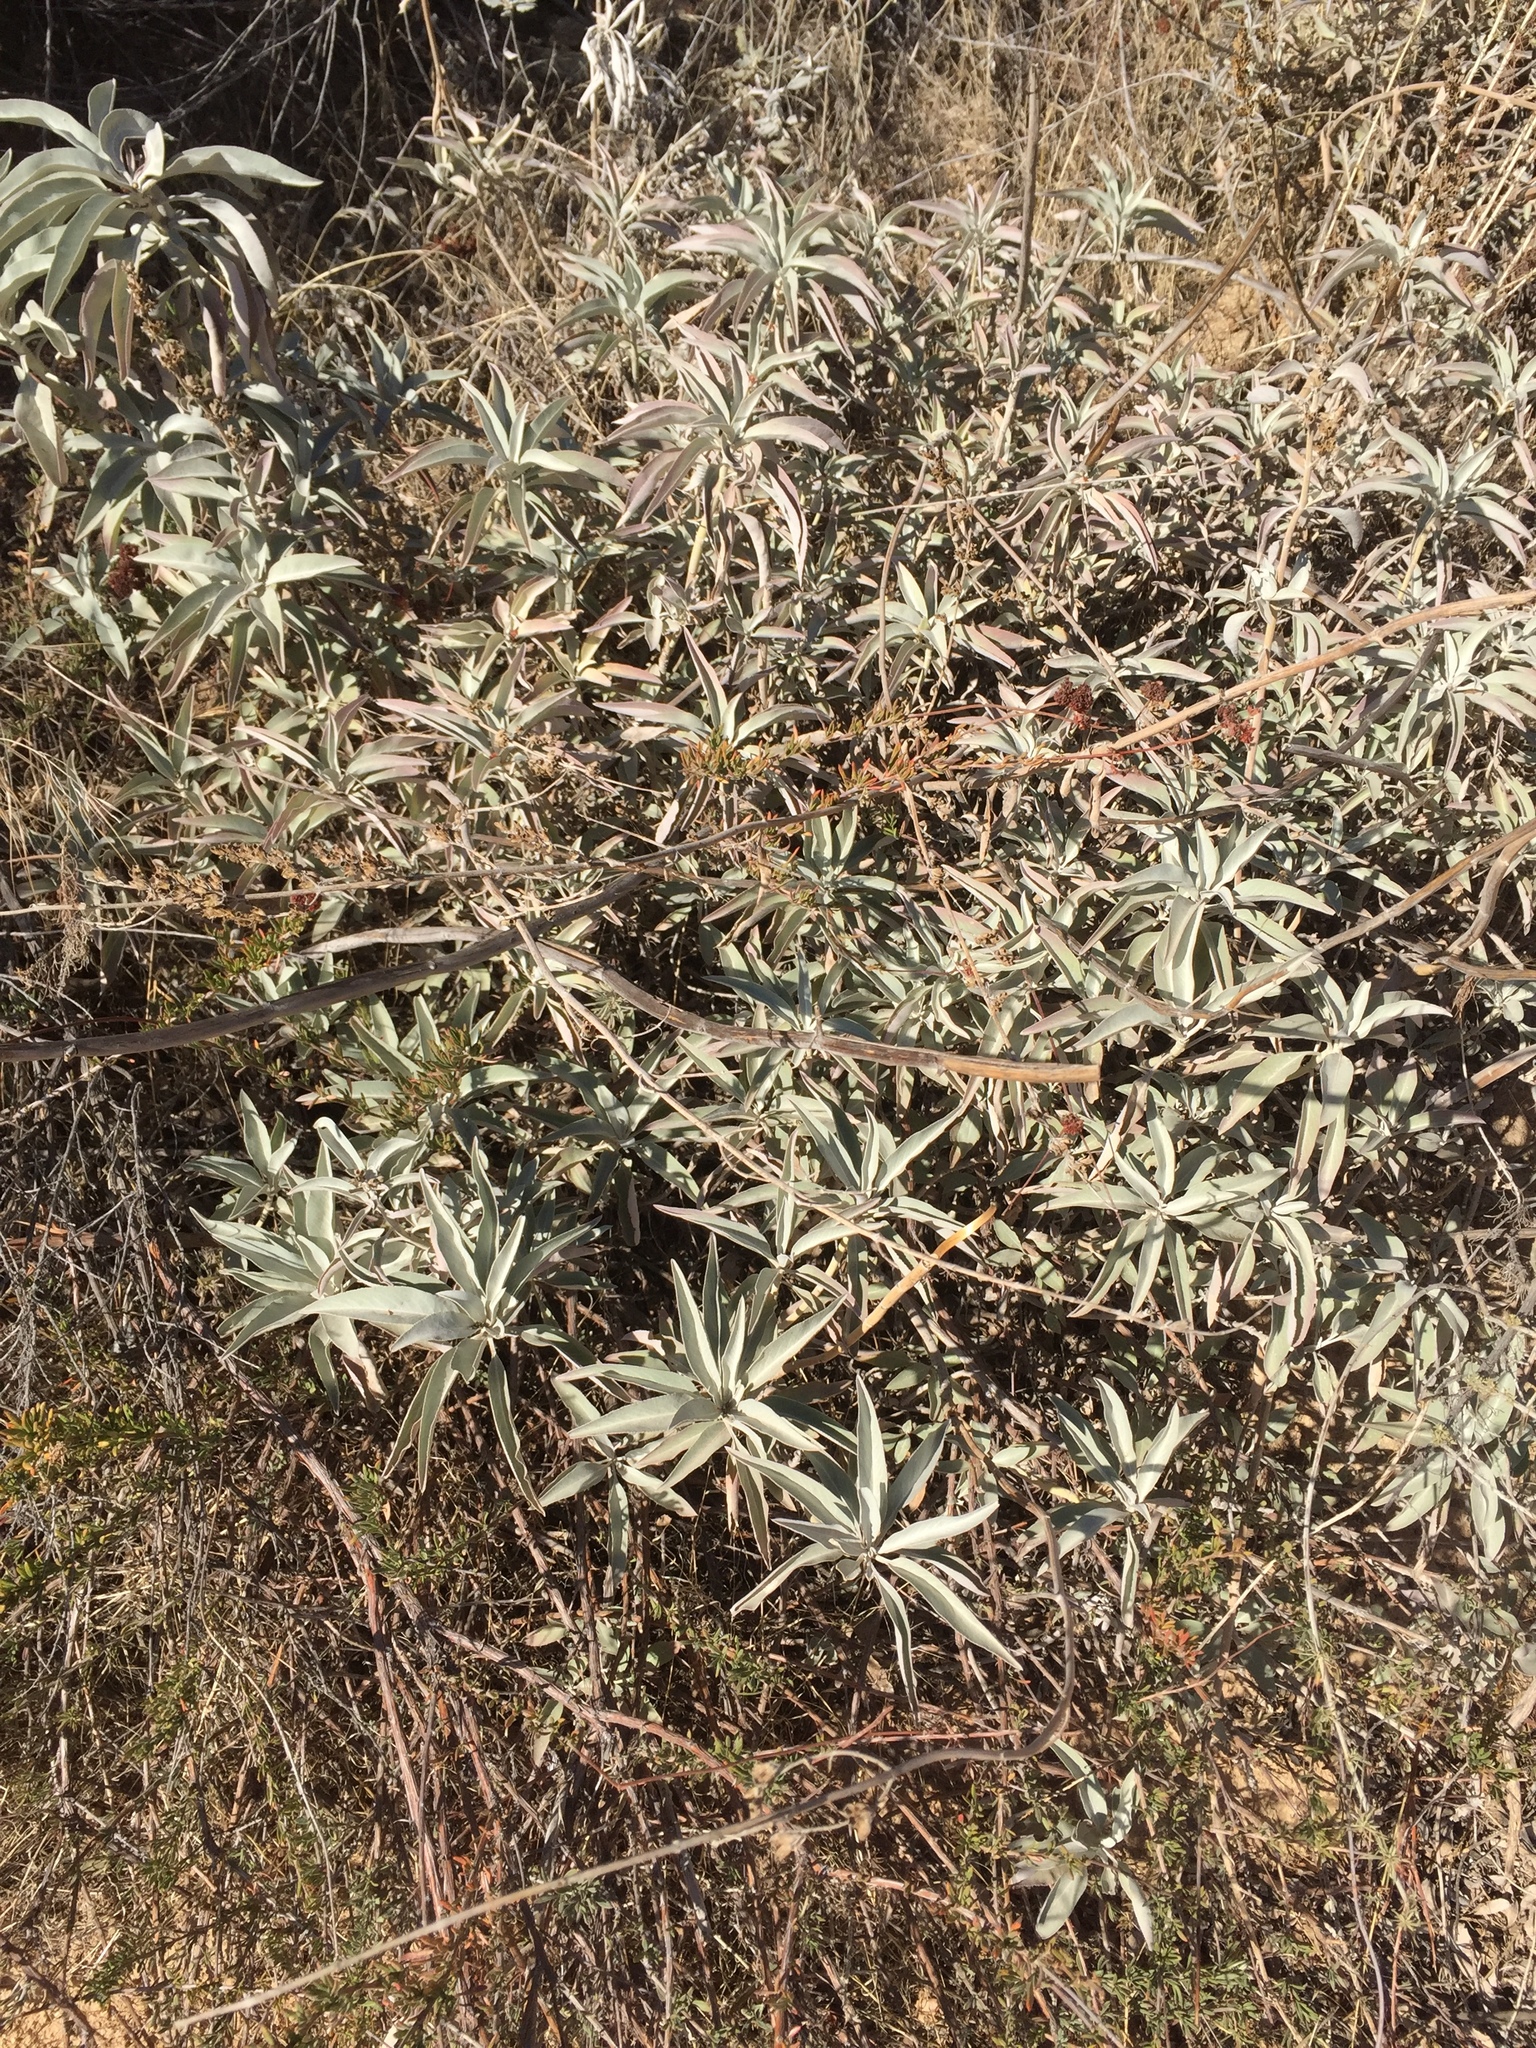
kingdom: Plantae
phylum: Tracheophyta
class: Magnoliopsida
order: Lamiales
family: Lamiaceae
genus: Salvia
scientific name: Salvia apiana
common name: White sage
